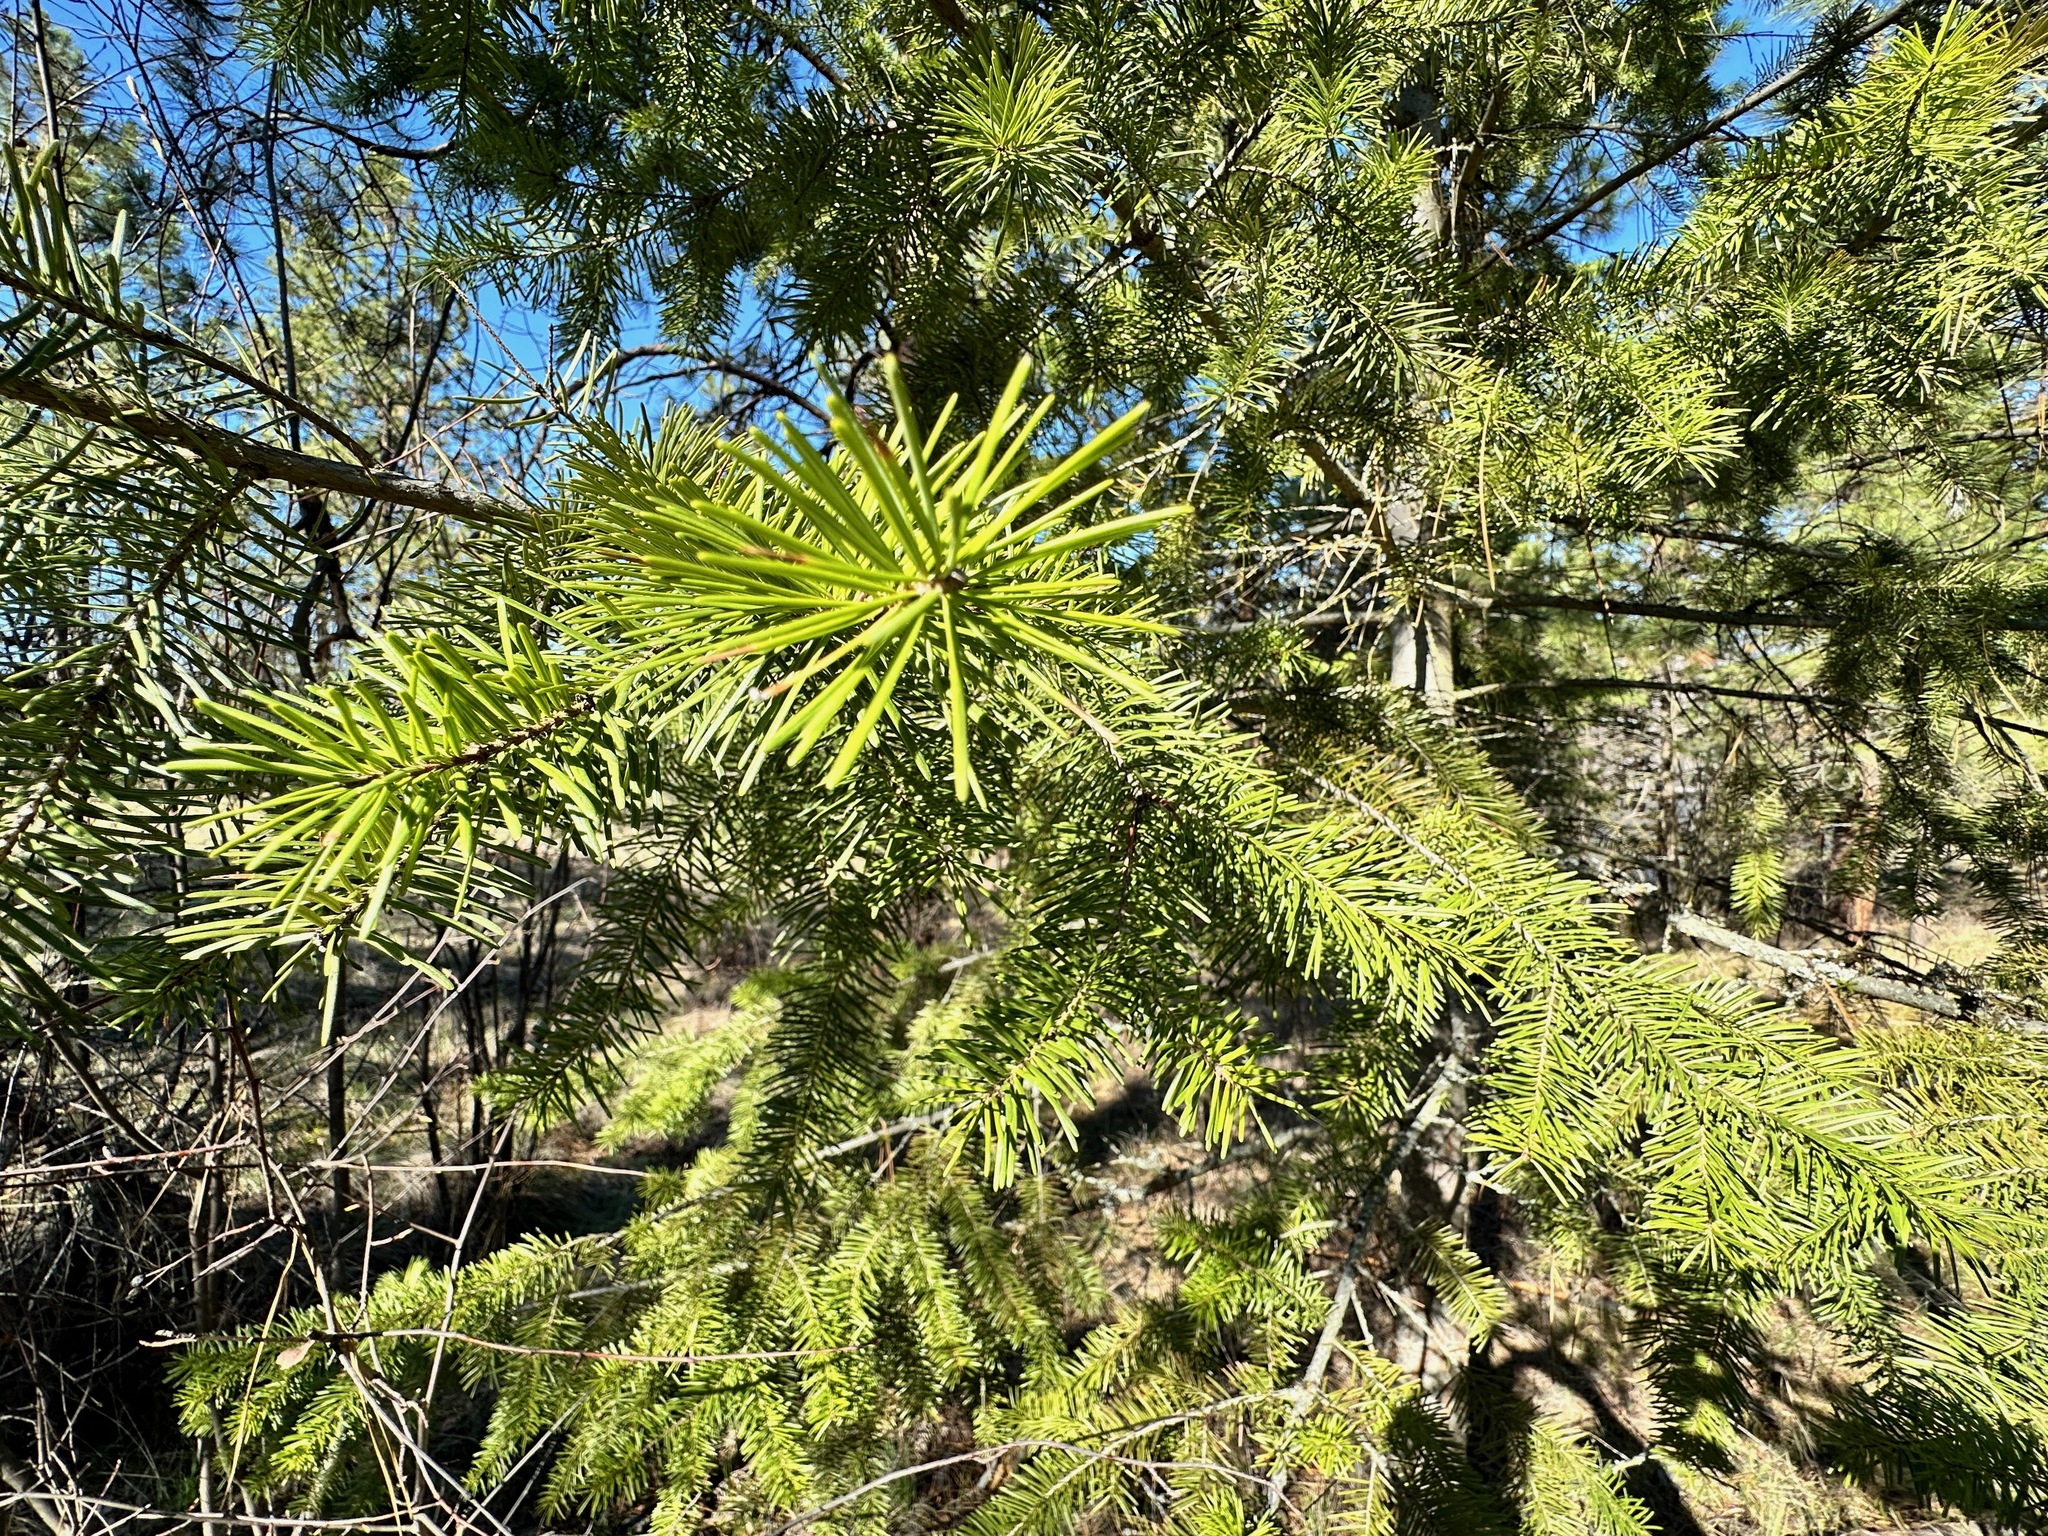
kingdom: Plantae
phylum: Tracheophyta
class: Pinopsida
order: Pinales
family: Pinaceae
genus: Pseudotsuga
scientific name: Pseudotsuga menziesii
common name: Douglas fir
